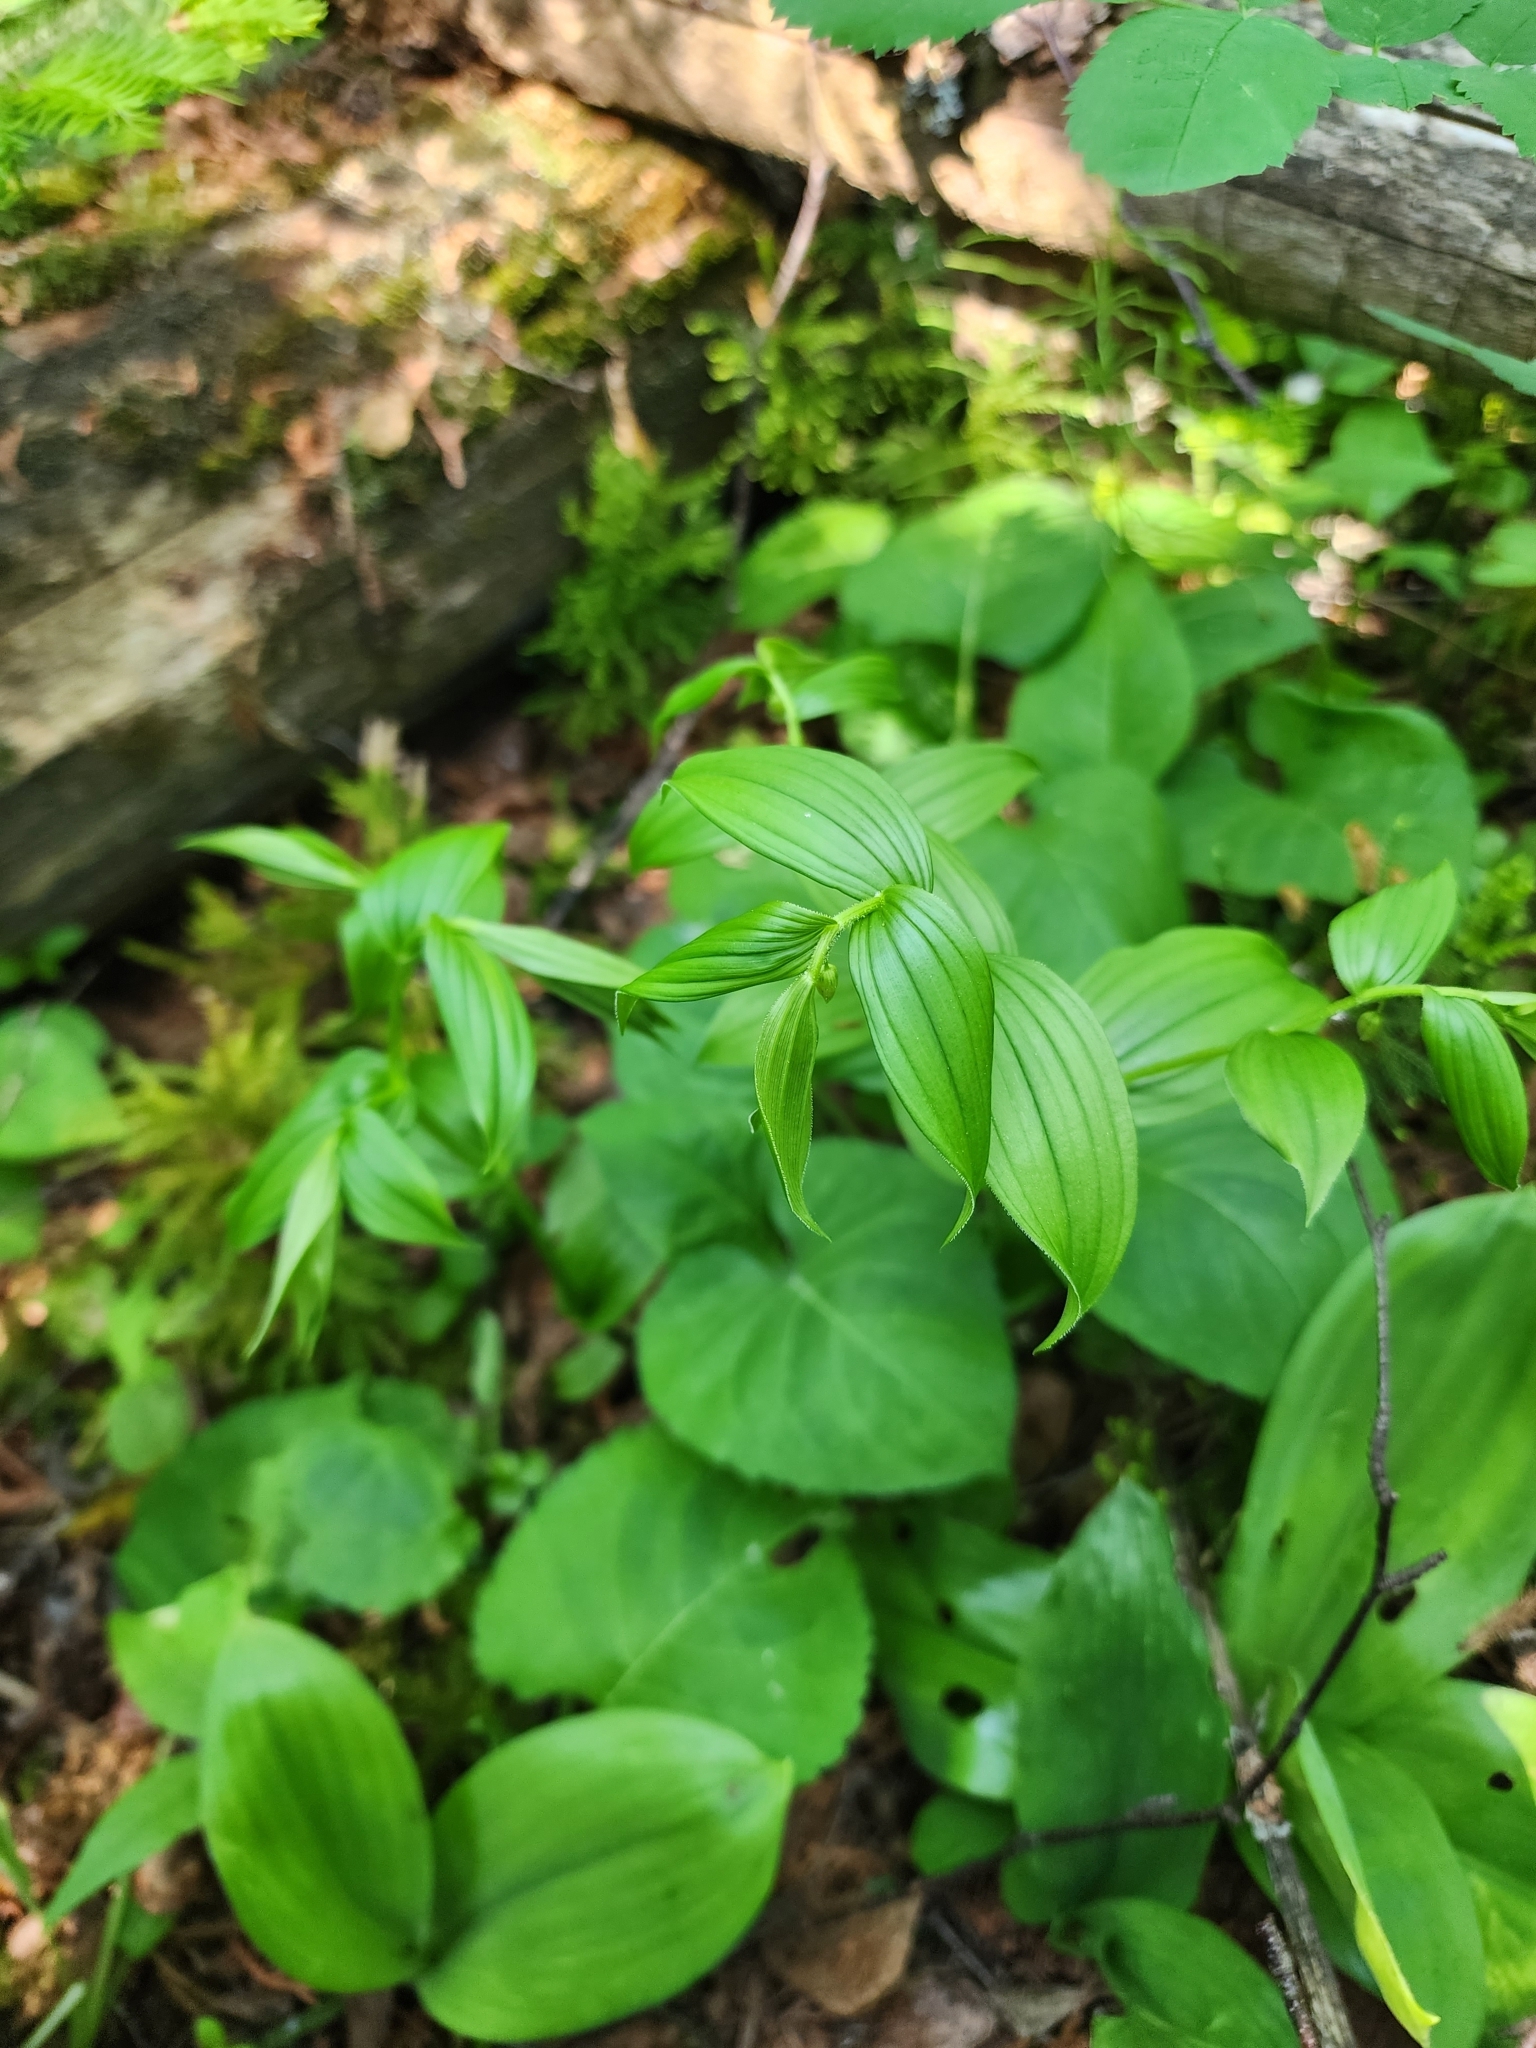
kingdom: Plantae
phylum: Tracheophyta
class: Liliopsida
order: Liliales
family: Liliaceae
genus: Streptopus
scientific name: Streptopus lanceolatus
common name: Rose mandarin
